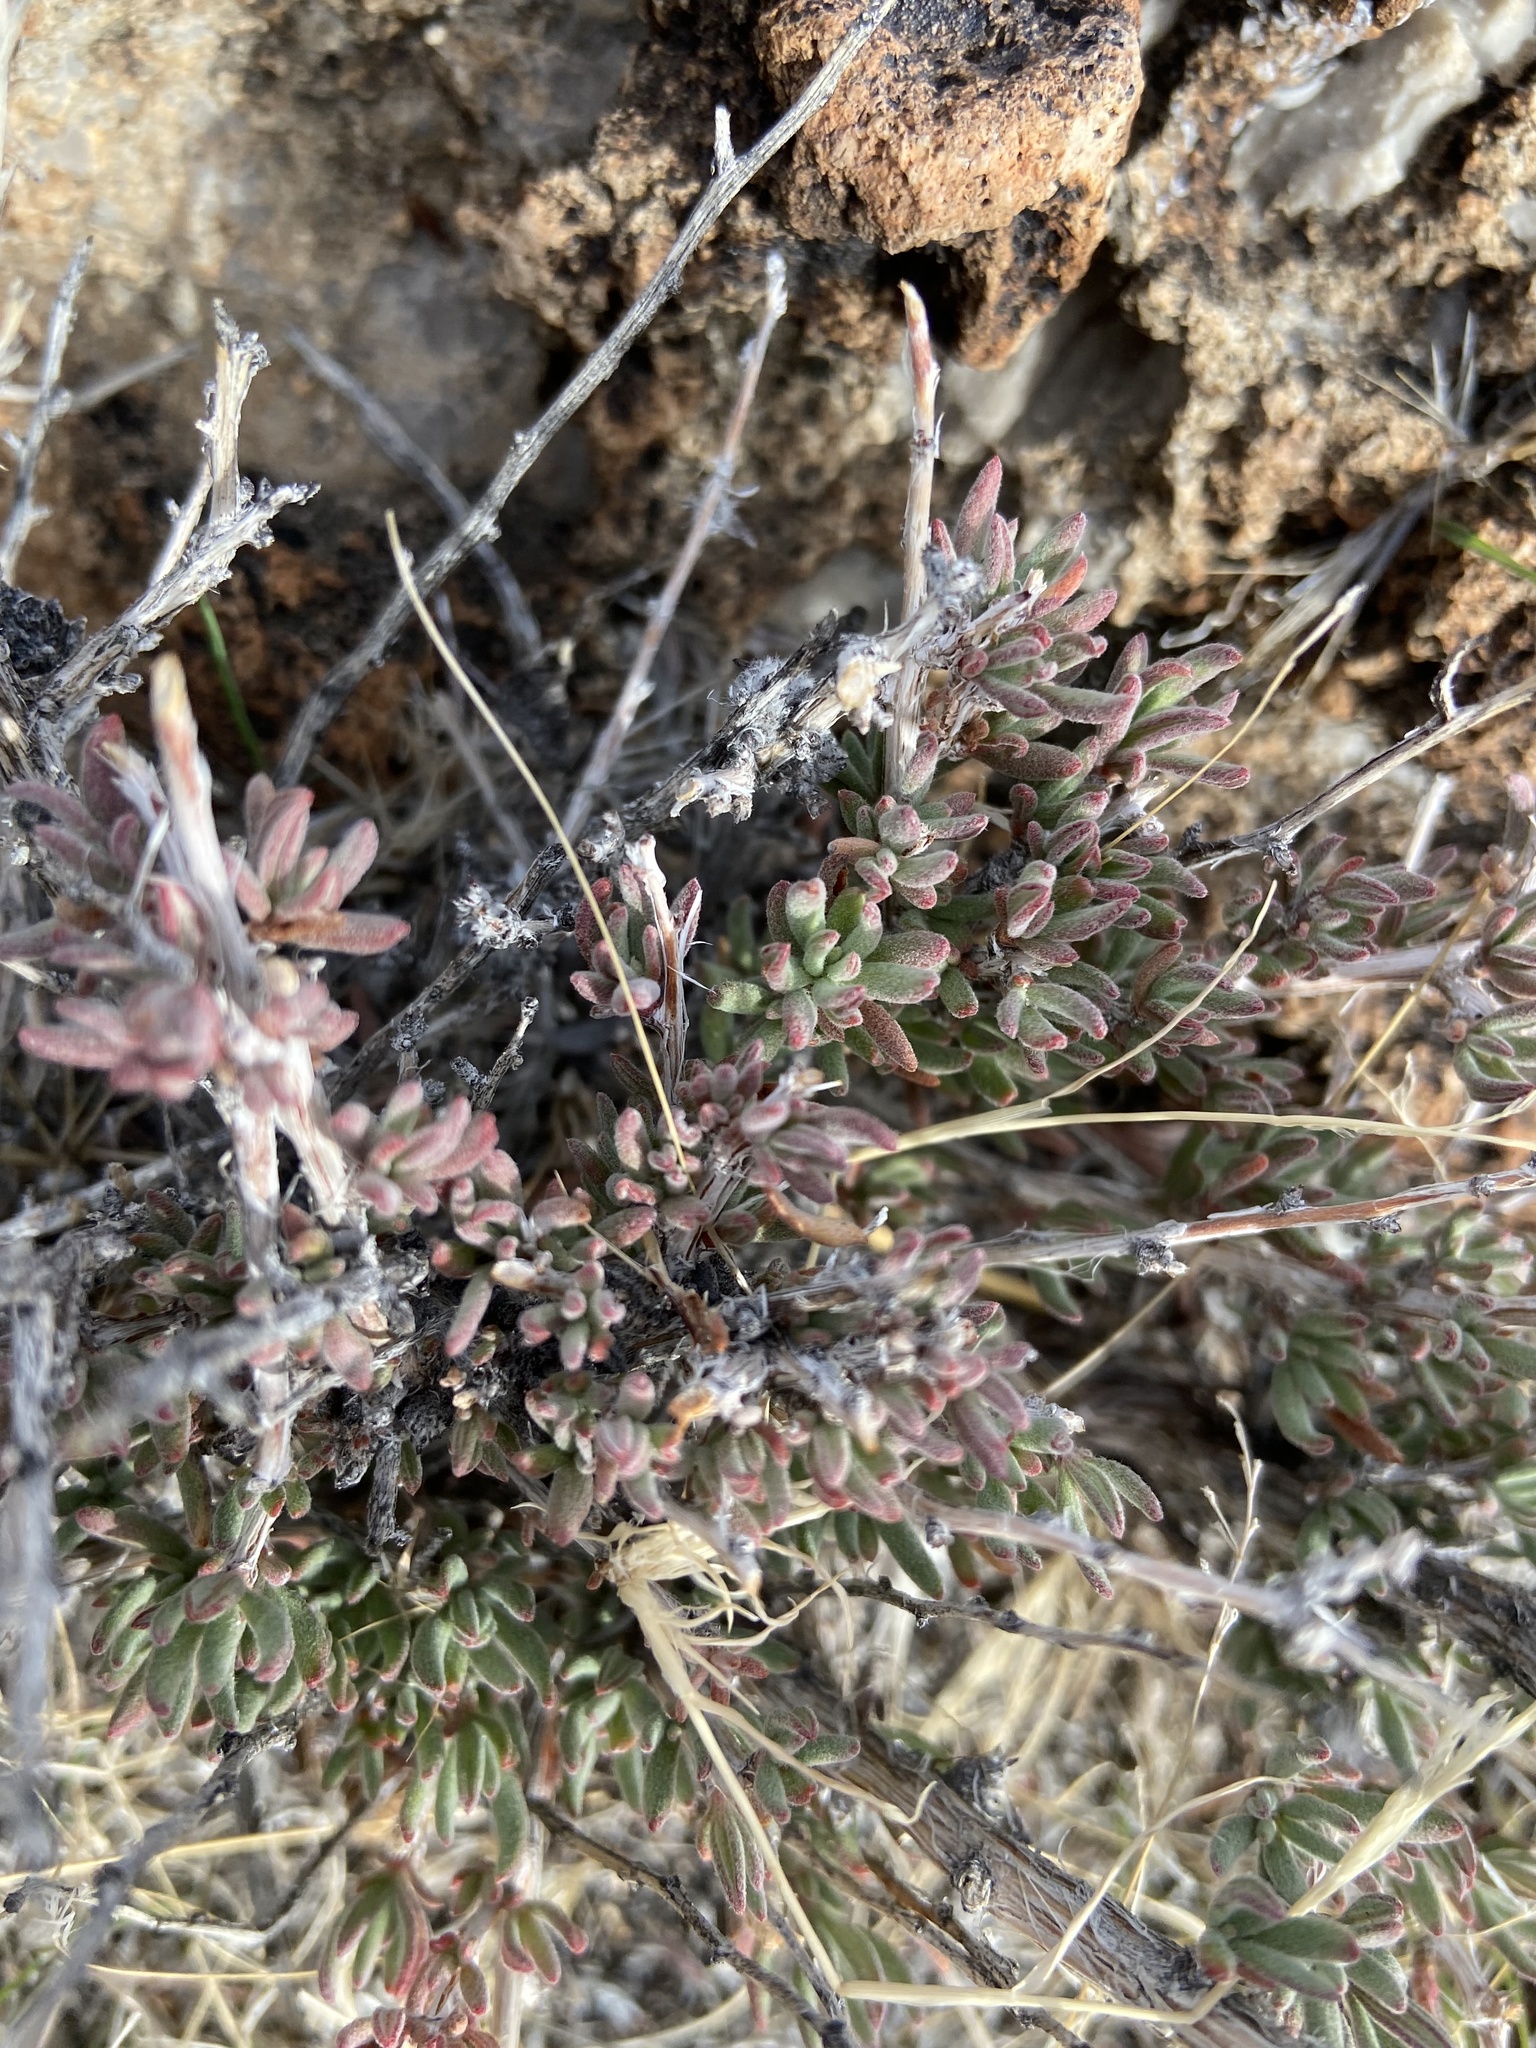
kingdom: Plantae
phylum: Tracheophyta
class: Magnoliopsida
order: Caryophyllales
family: Polygonaceae
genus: Eriogonum
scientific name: Eriogonum fasciculatum
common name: California wild buckwheat
